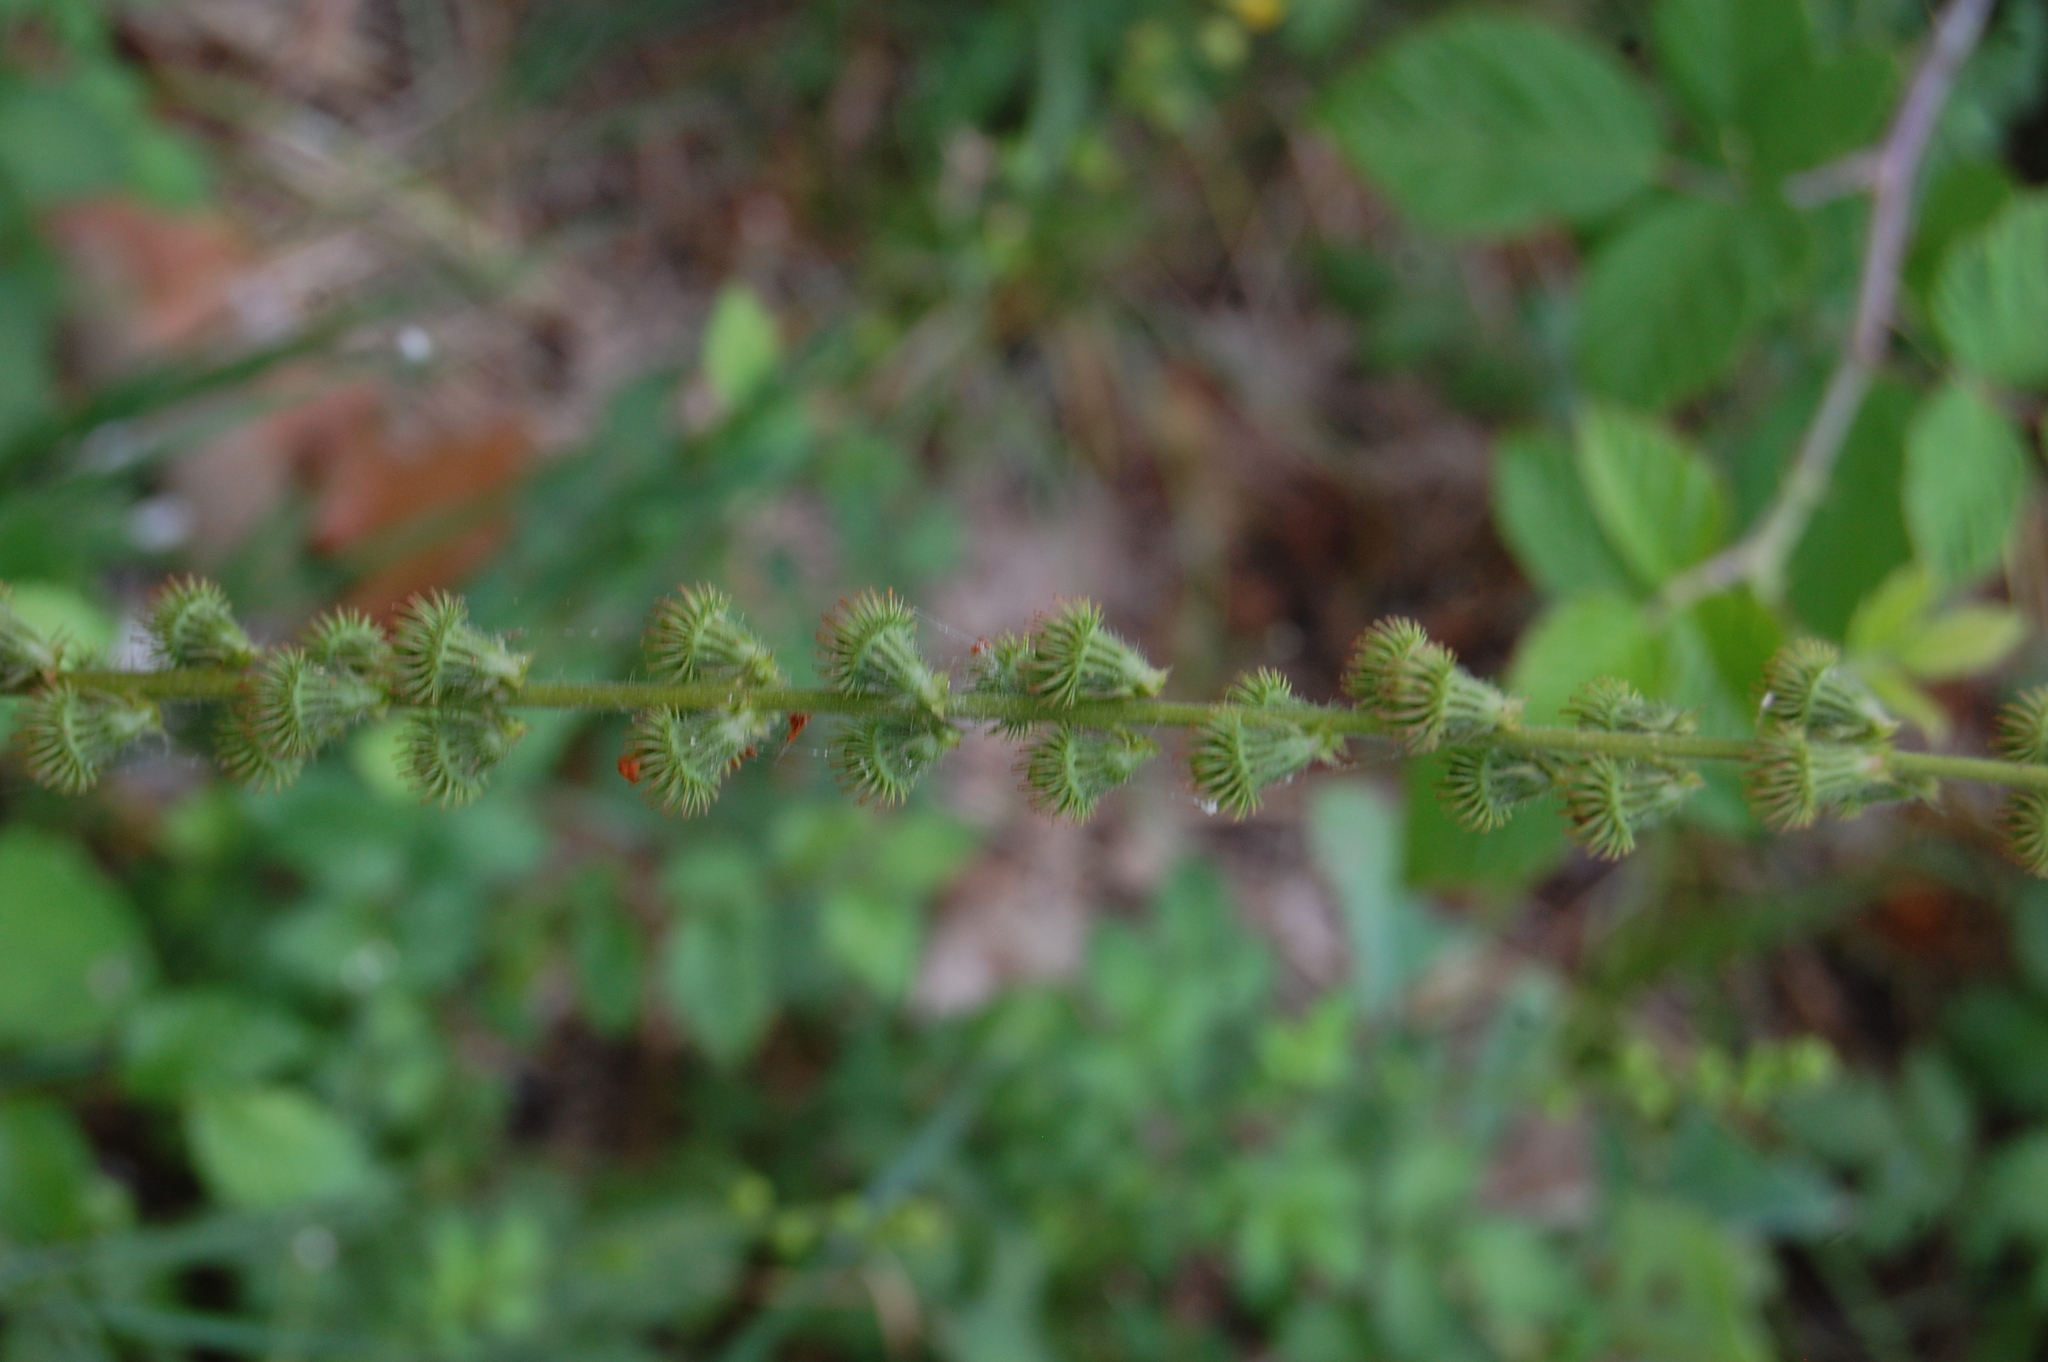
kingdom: Plantae
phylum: Tracheophyta
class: Magnoliopsida
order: Rosales
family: Rosaceae
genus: Agrimonia
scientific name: Agrimonia eupatoria
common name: Agrimony
